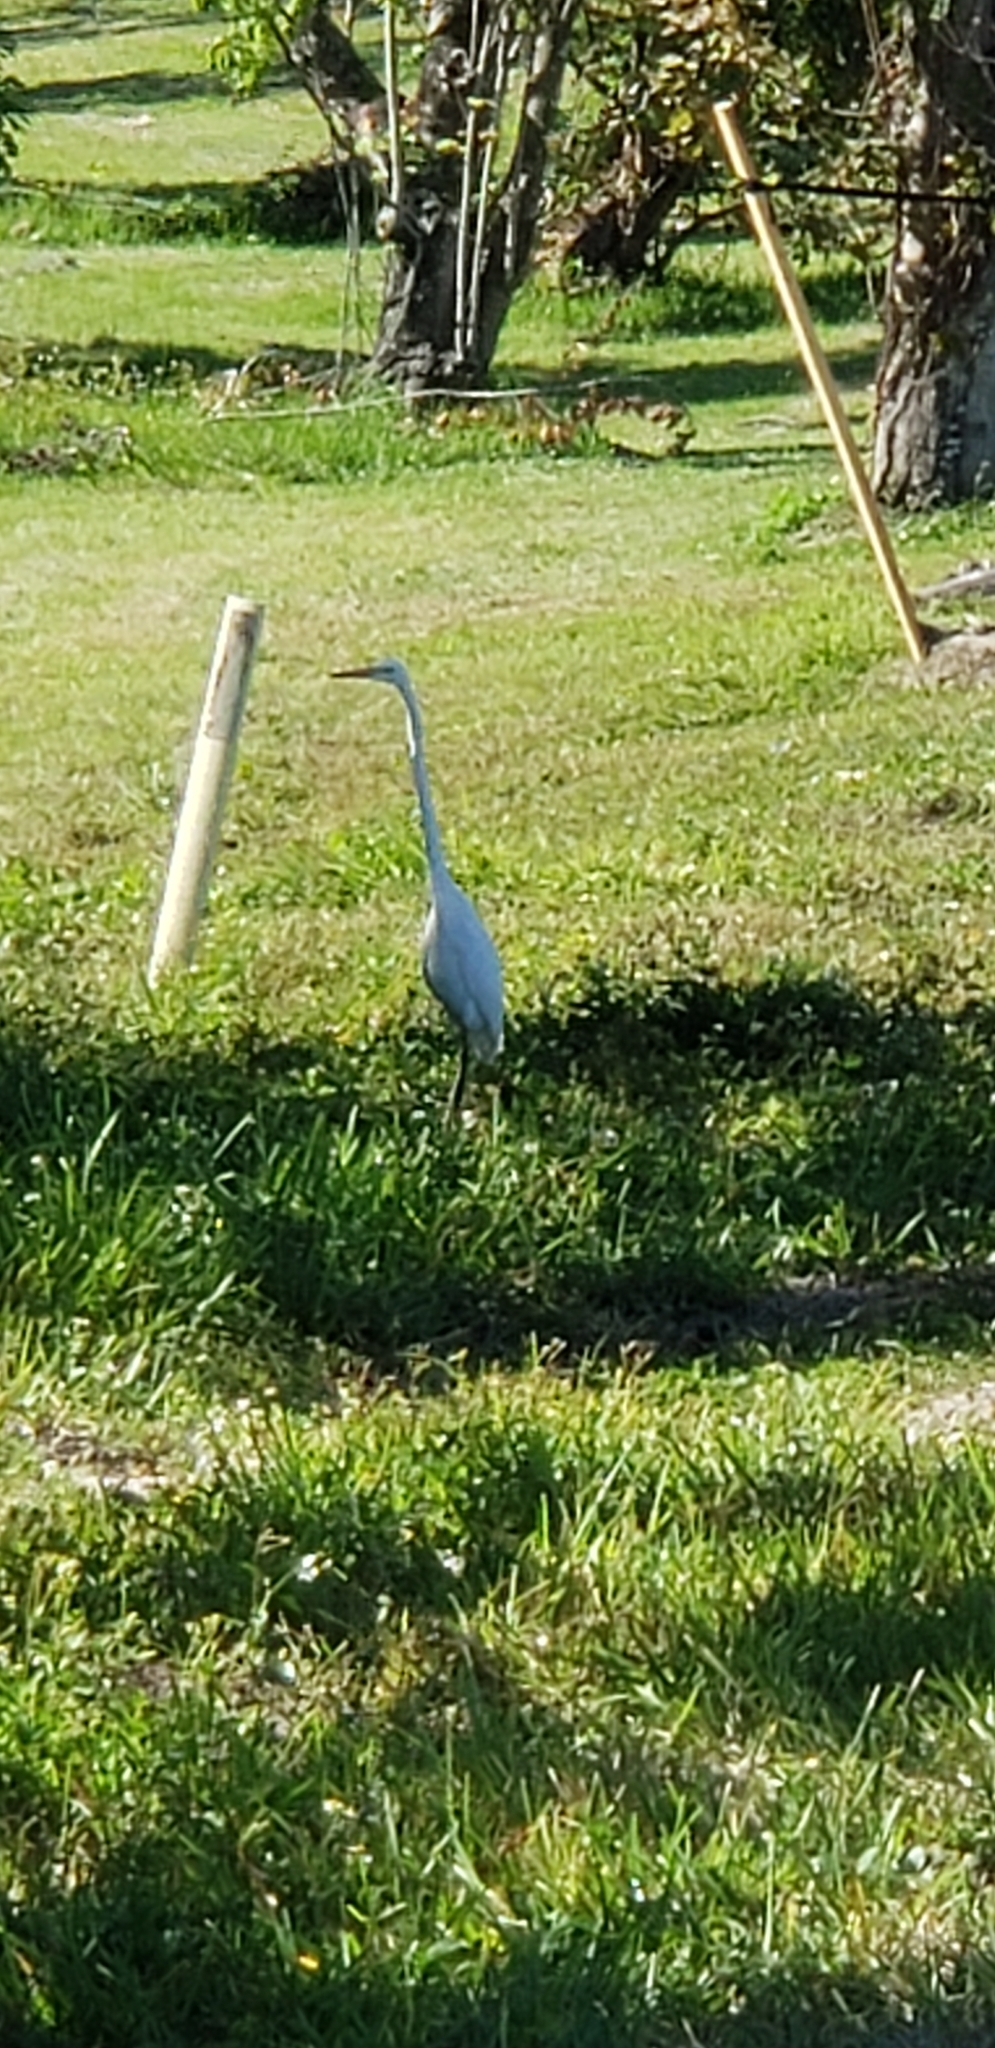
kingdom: Animalia
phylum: Chordata
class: Aves
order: Pelecaniformes
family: Ardeidae
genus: Ardea
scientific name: Ardea alba
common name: Great egret
